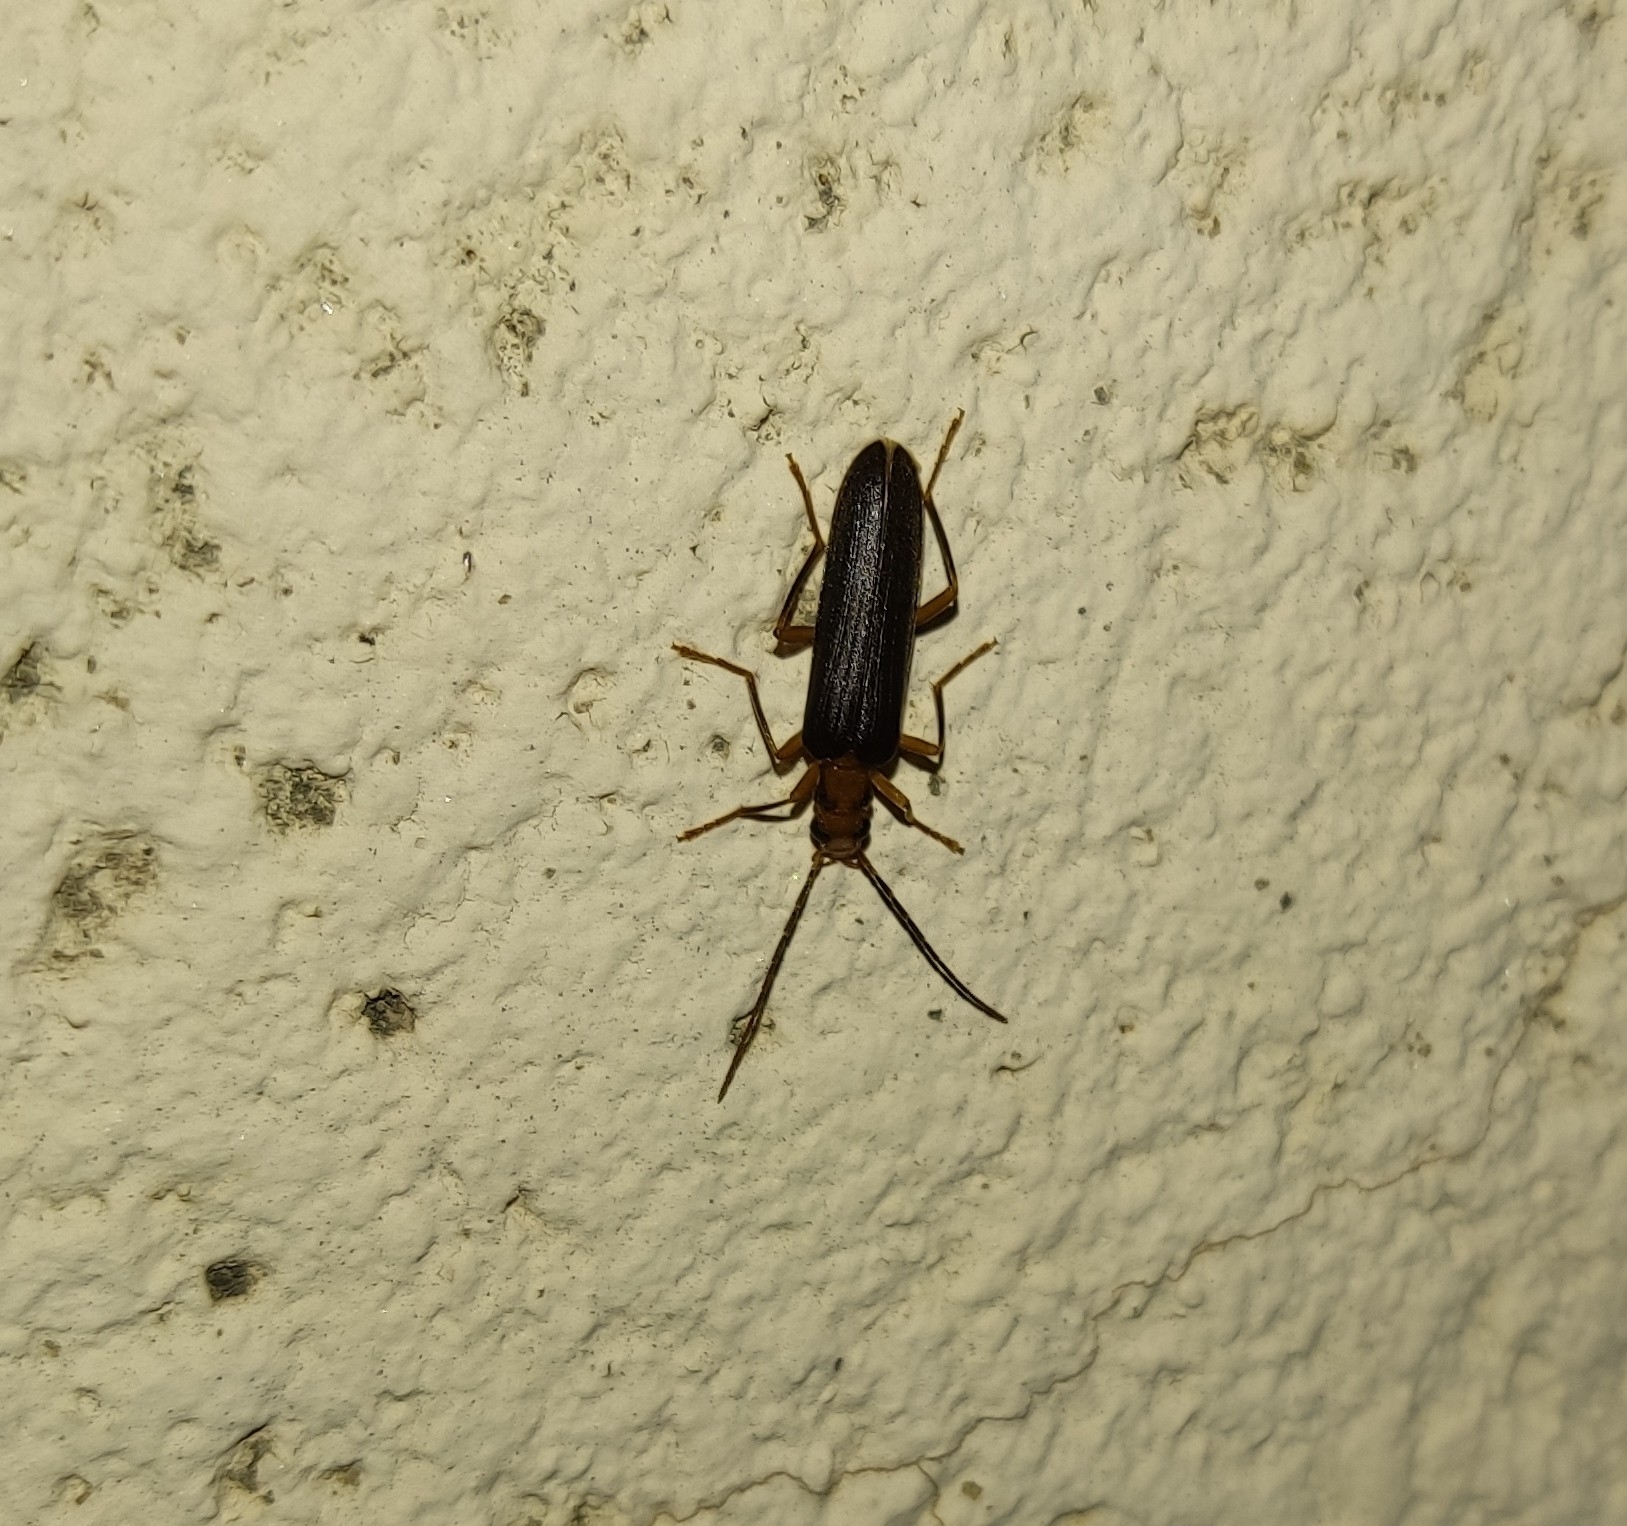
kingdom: Animalia
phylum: Arthropoda
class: Insecta
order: Coleoptera
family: Oedemeridae
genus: Nacerdes
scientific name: Nacerdes carniolica
